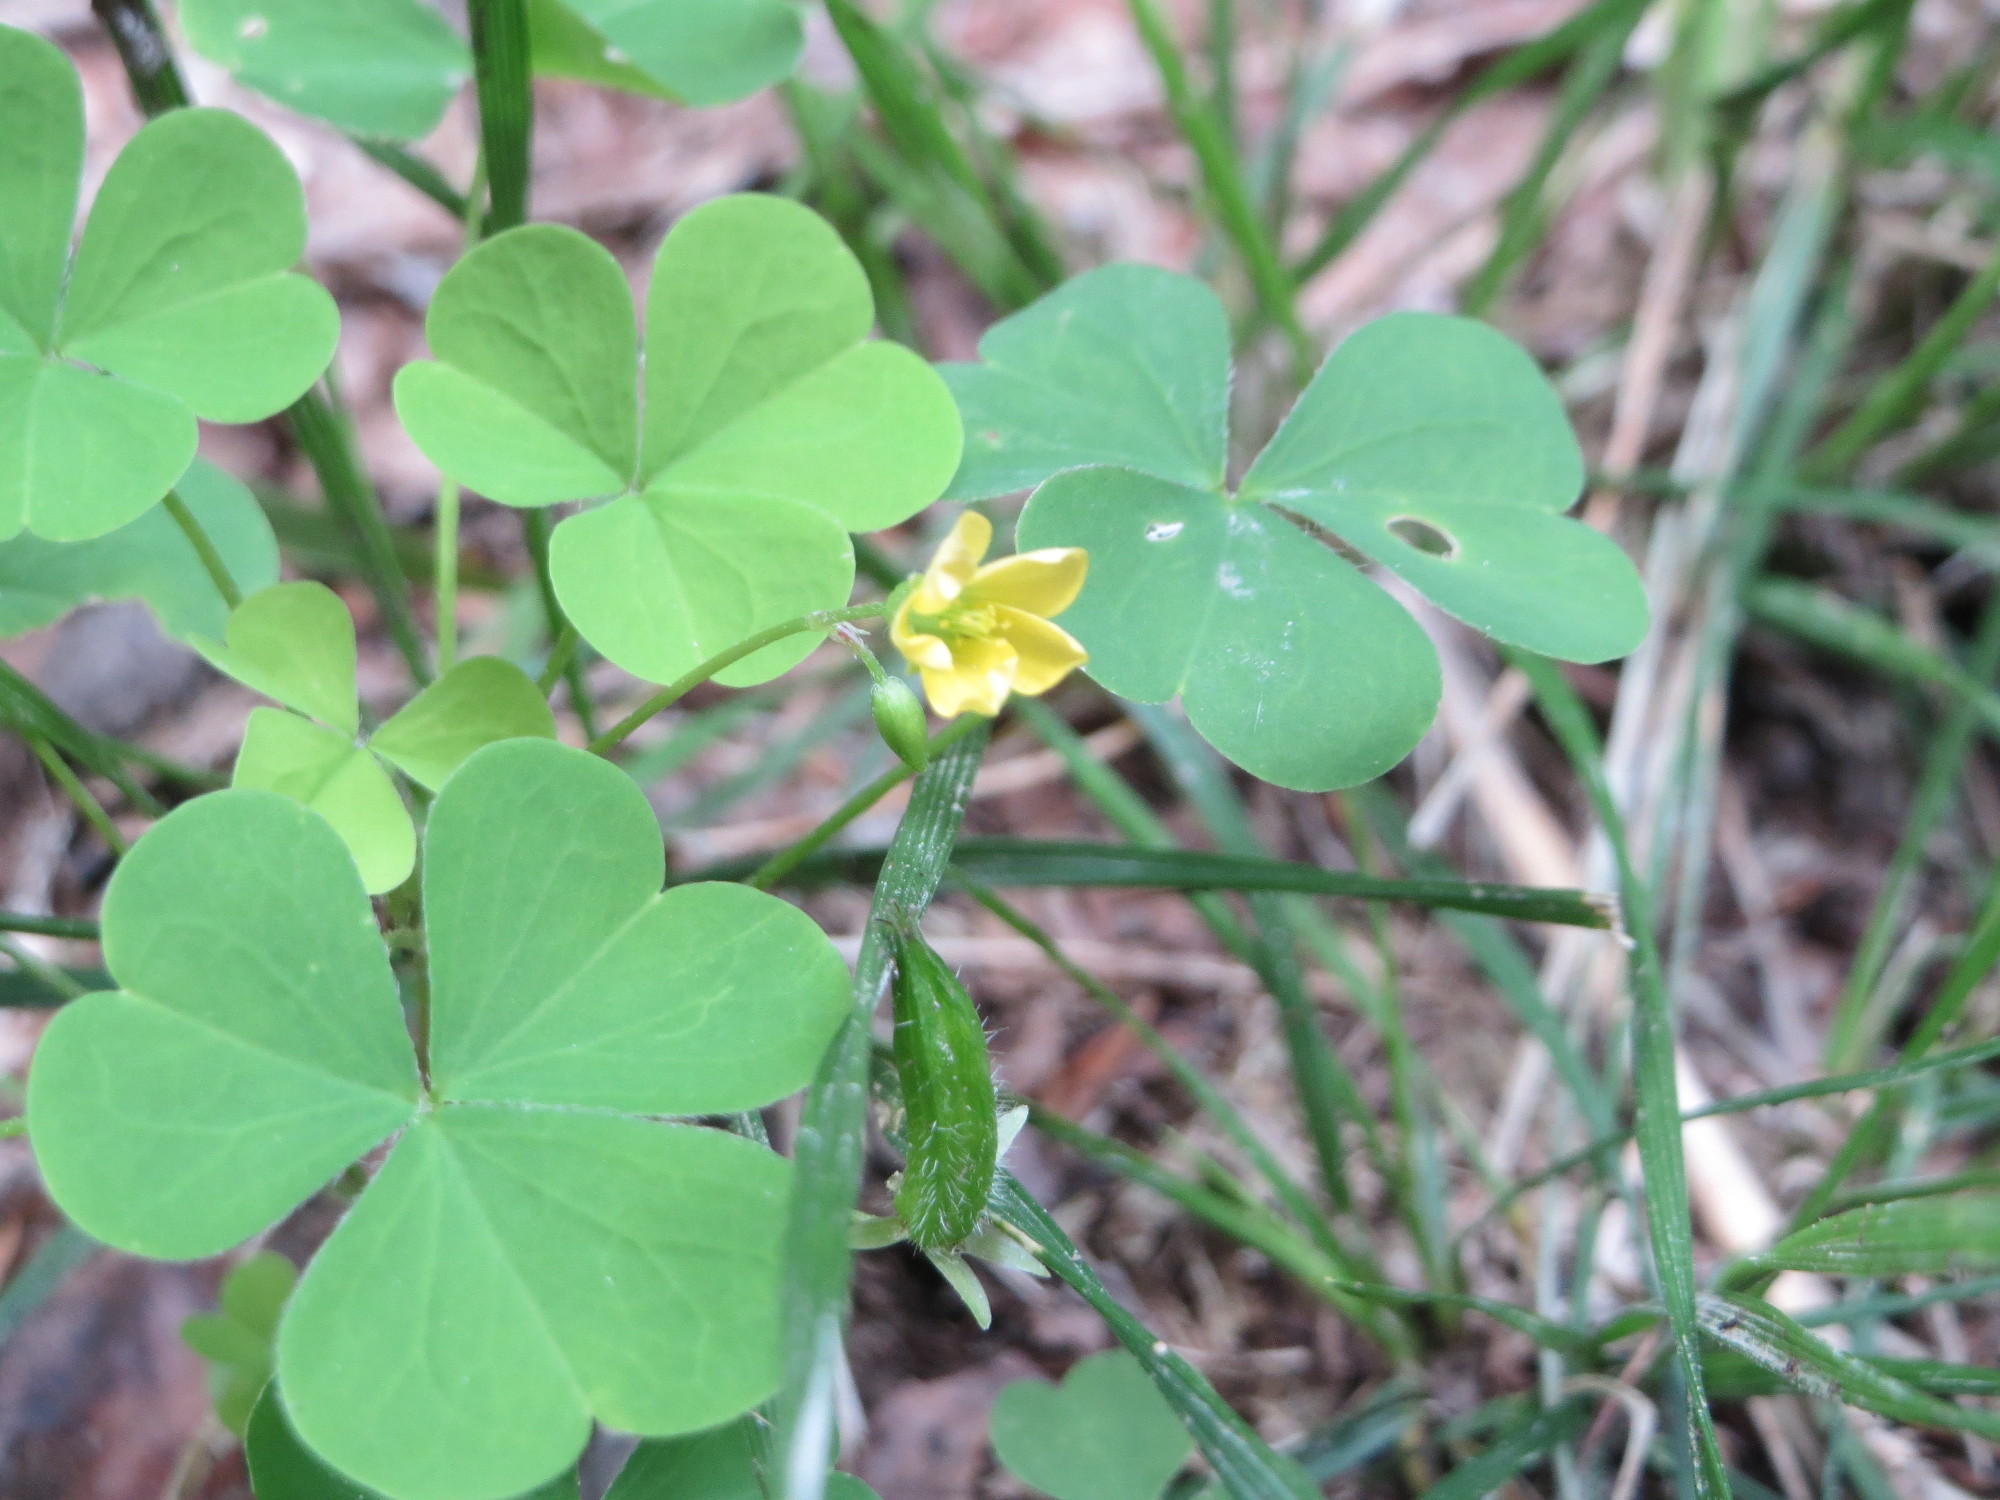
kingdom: Plantae
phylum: Tracheophyta
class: Magnoliopsida
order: Oxalidales
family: Oxalidaceae
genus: Oxalis
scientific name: Oxalis stricta
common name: Upright yellow-sorrel
